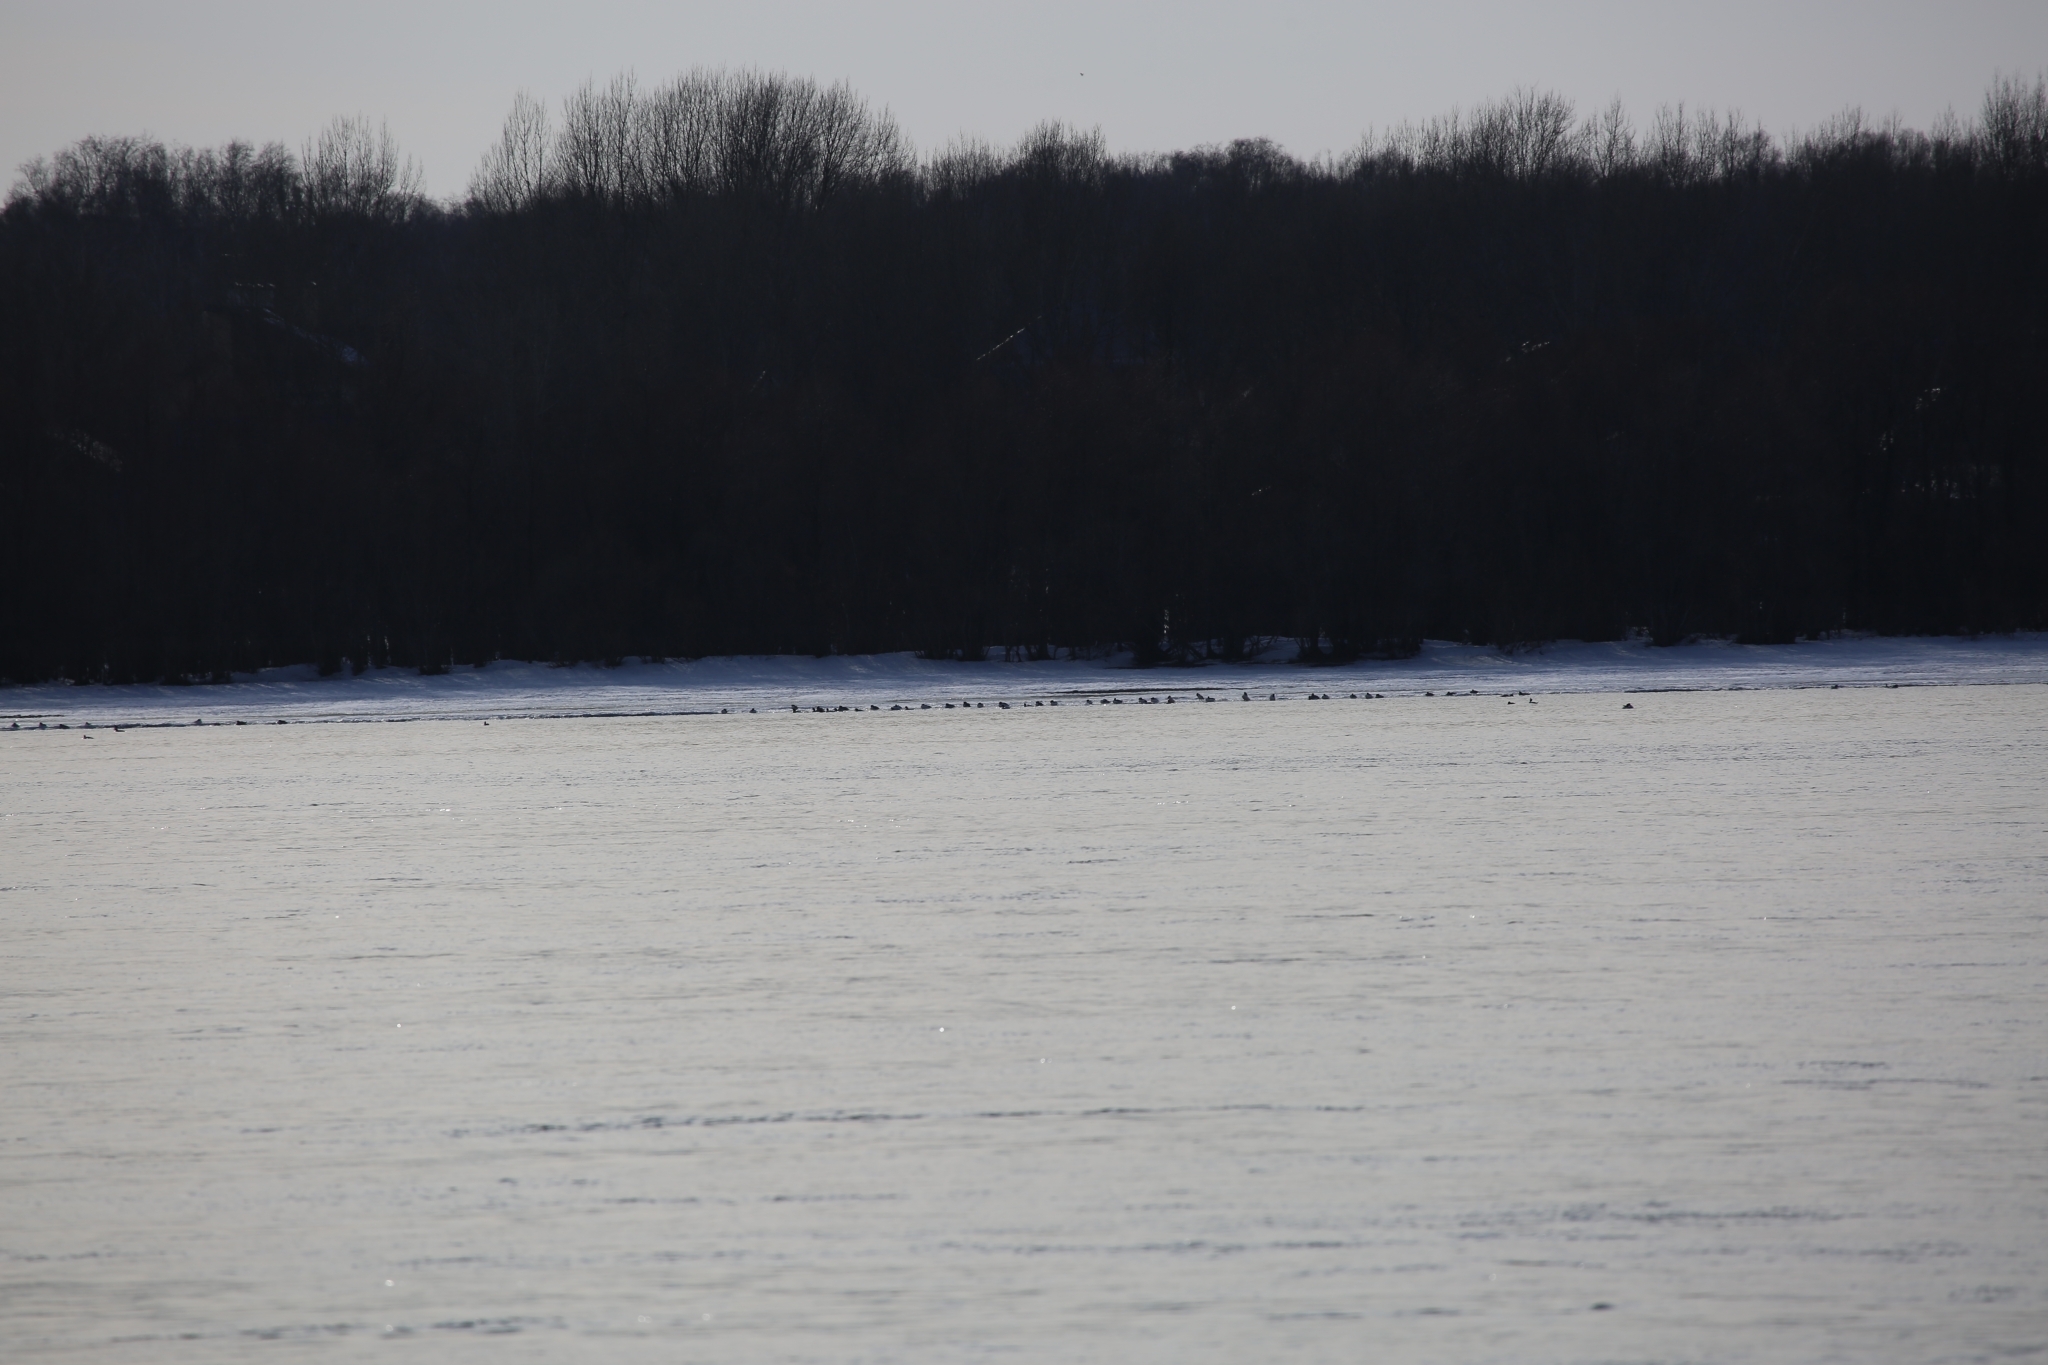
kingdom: Animalia
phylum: Chordata
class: Aves
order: Anseriformes
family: Anatidae
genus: Mergus
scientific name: Mergus merganser
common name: Common merganser
